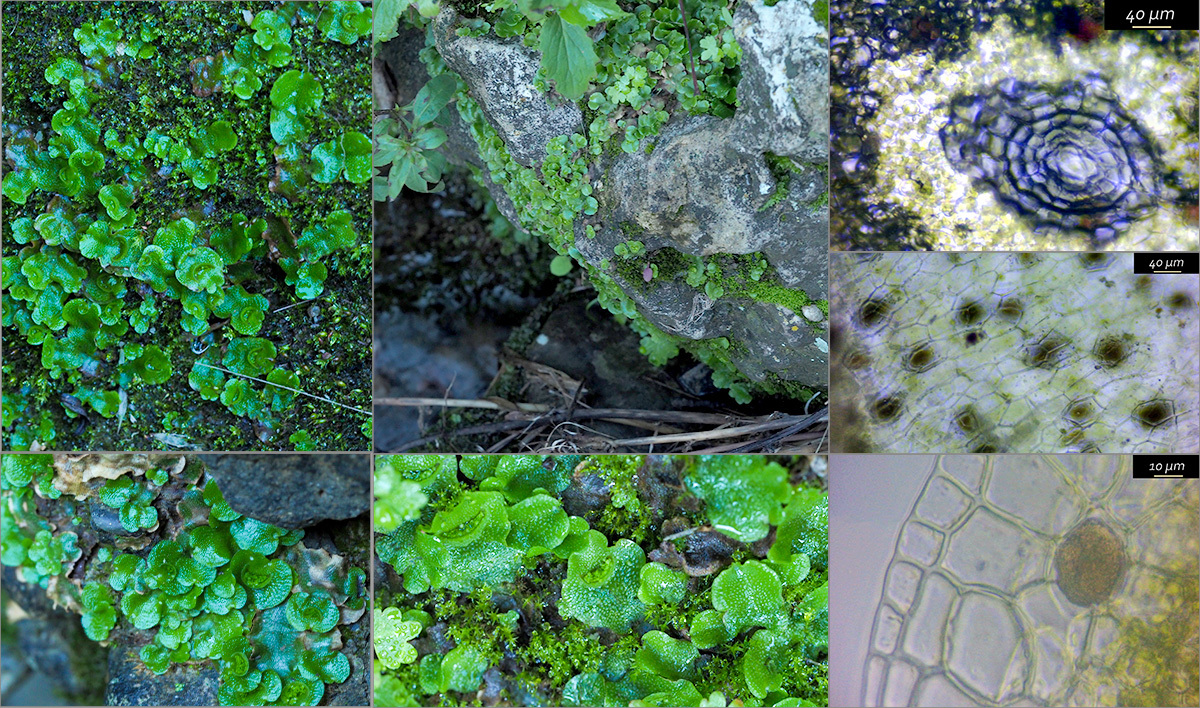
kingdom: Plantae
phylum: Marchantiophyta
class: Marchantiopsida
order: Lunulariales
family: Lunulariaceae
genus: Lunularia
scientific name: Lunularia cruciata
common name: Crescent-cup liverwort
